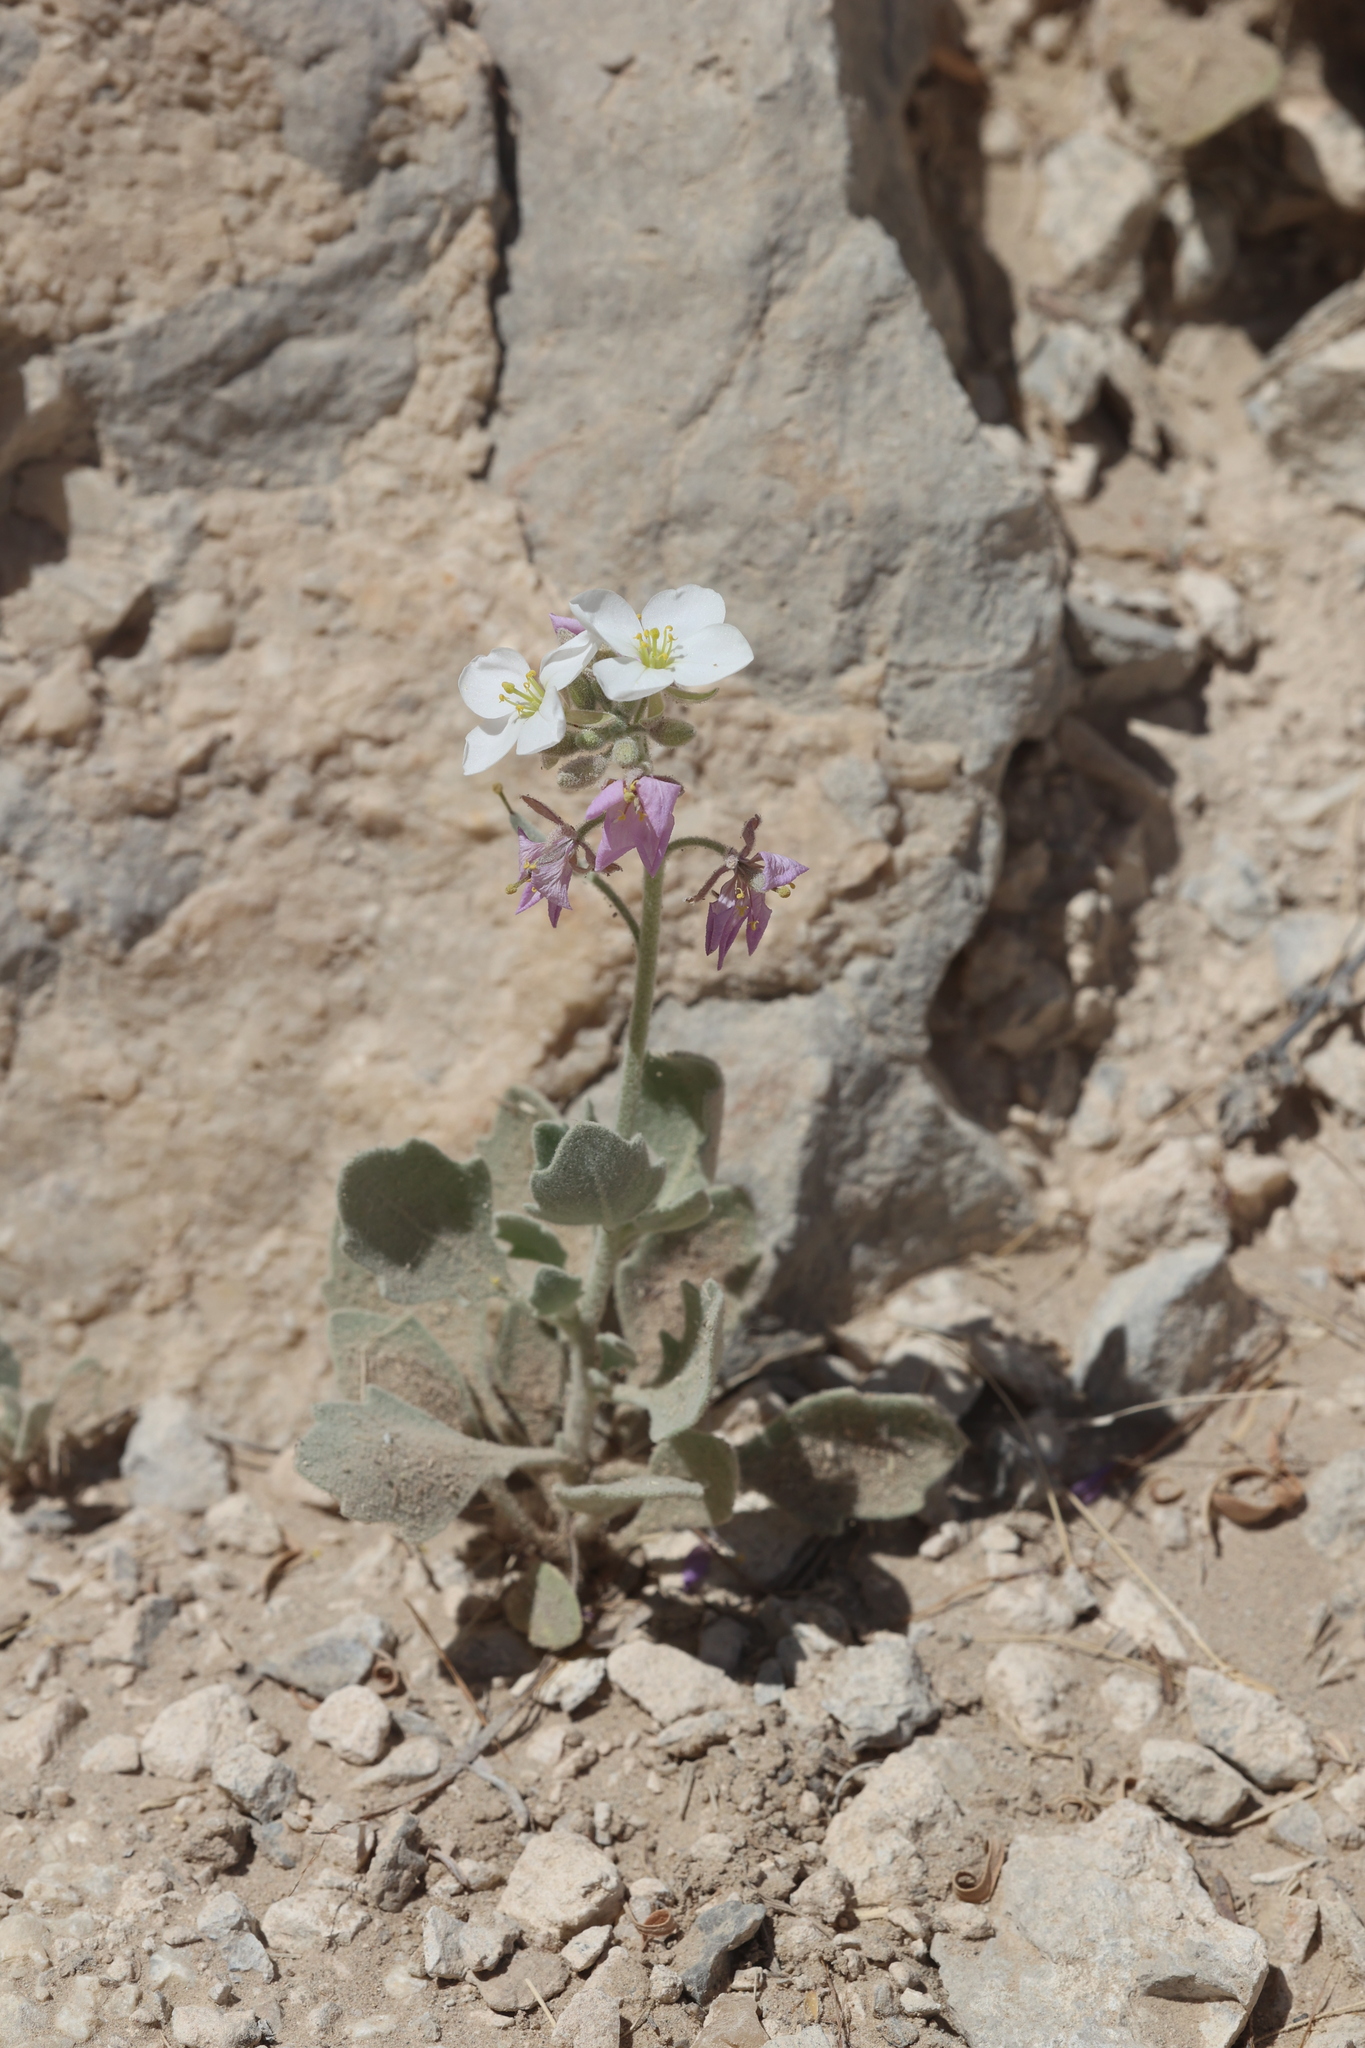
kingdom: Plantae
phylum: Tracheophyta
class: Magnoliopsida
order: Brassicales
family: Brassicaceae
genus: Nerisyrenia
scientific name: Nerisyrenia camporum
